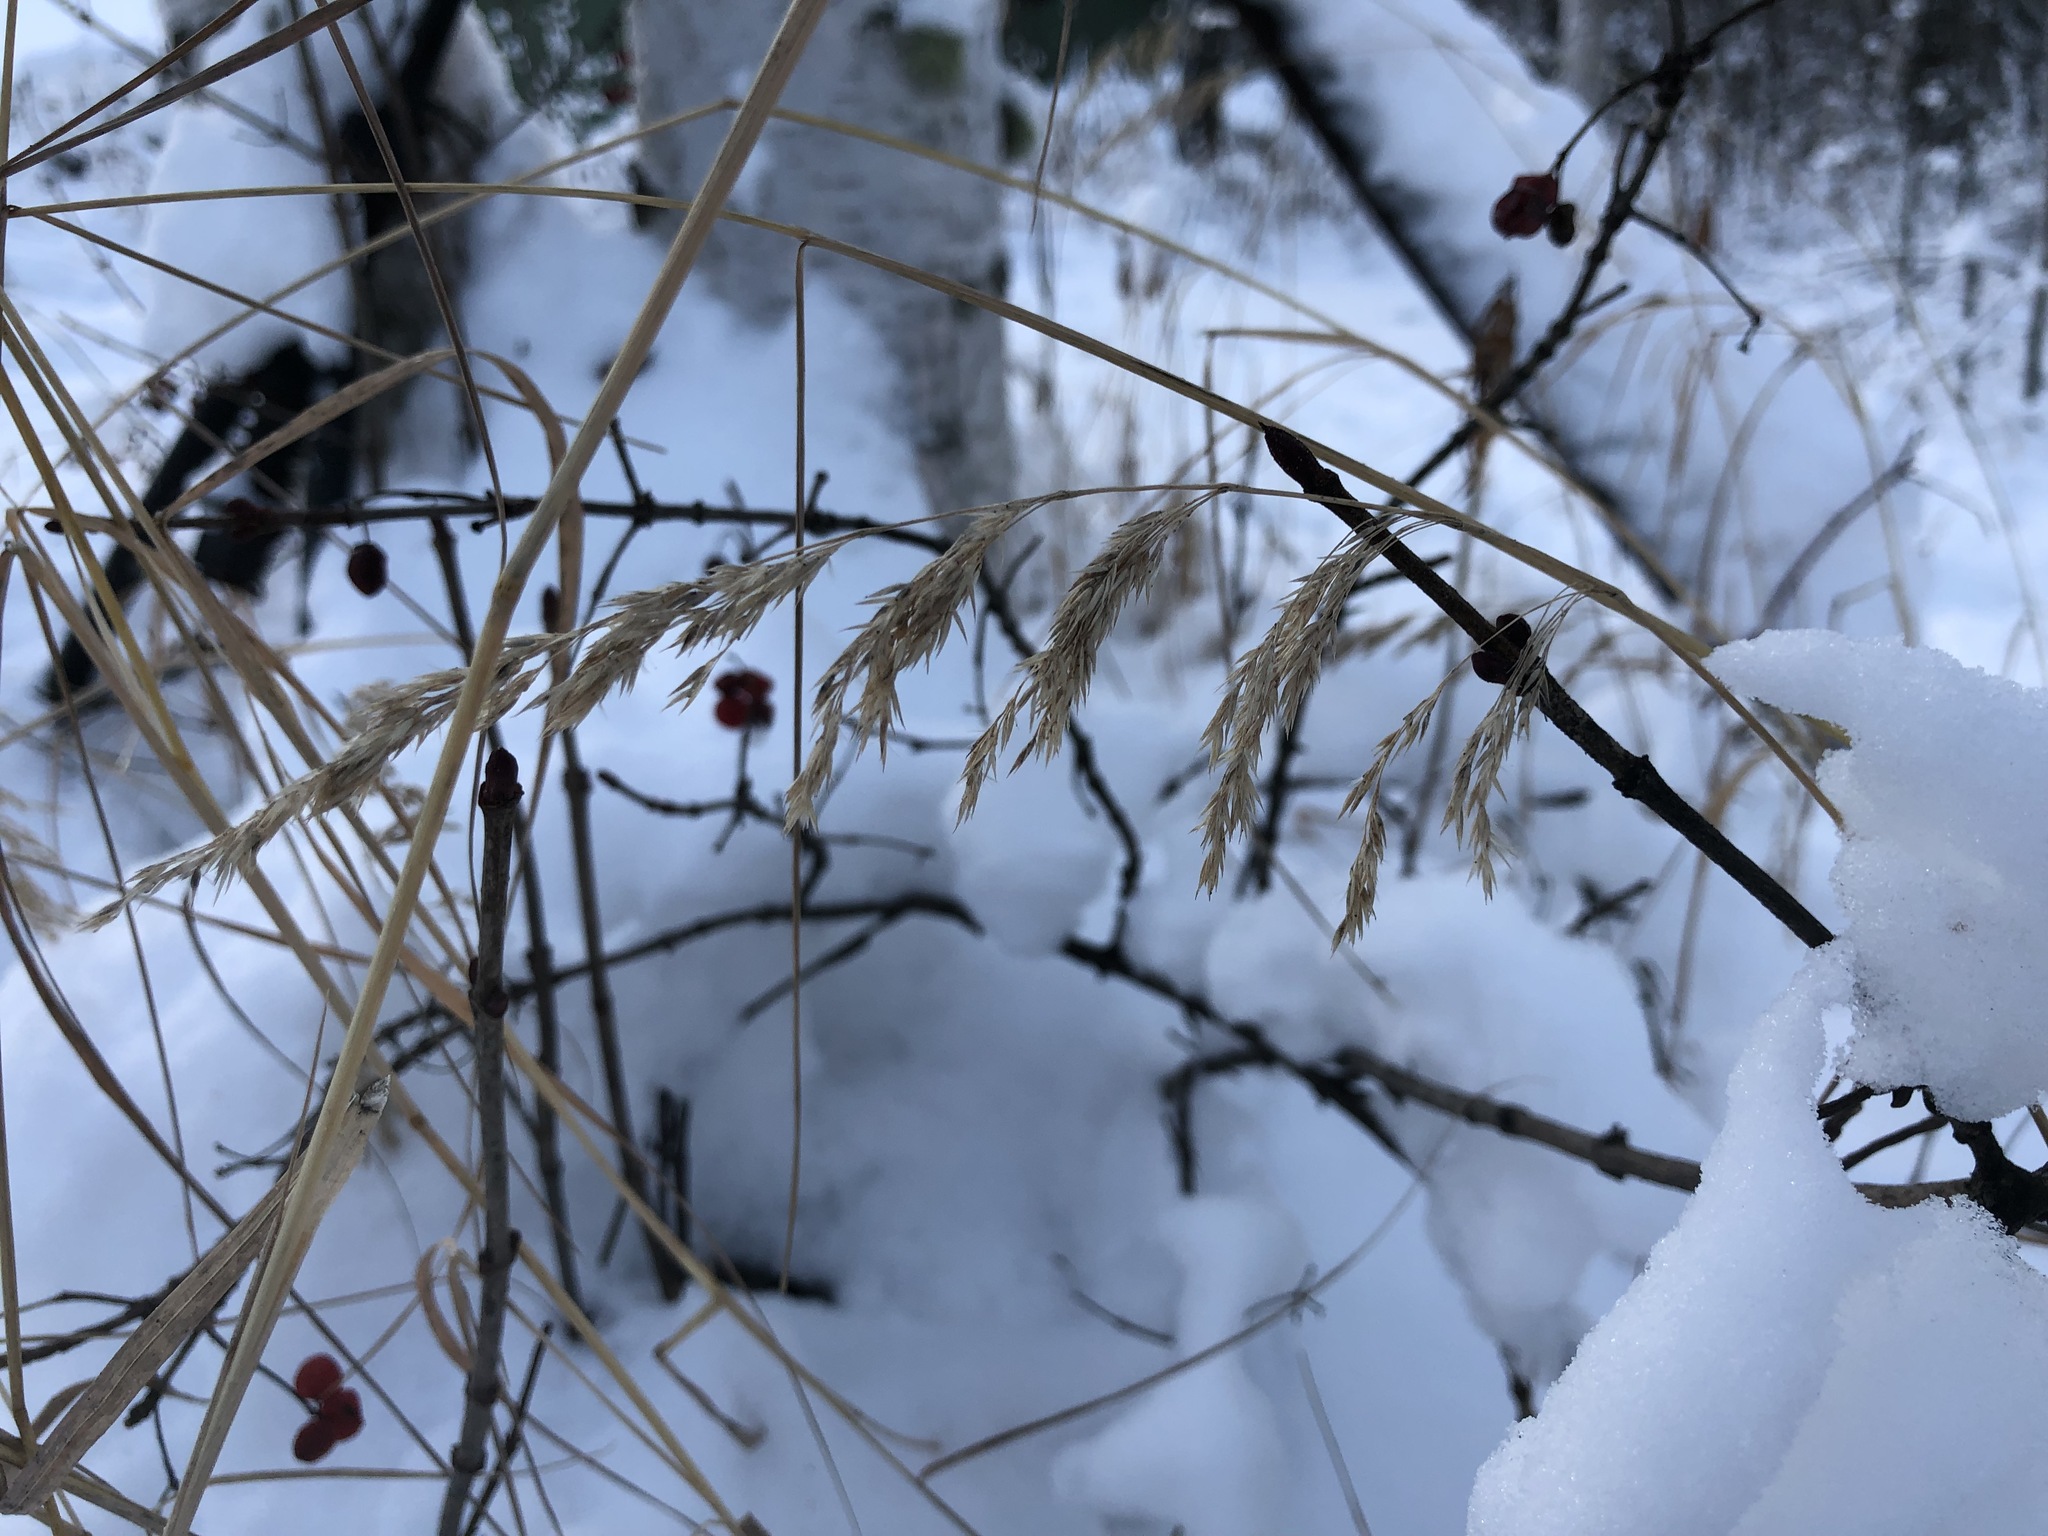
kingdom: Plantae
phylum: Tracheophyta
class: Liliopsida
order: Poales
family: Poaceae
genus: Calamagrostis
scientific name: Calamagrostis canadensis
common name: Canada bluejoint
